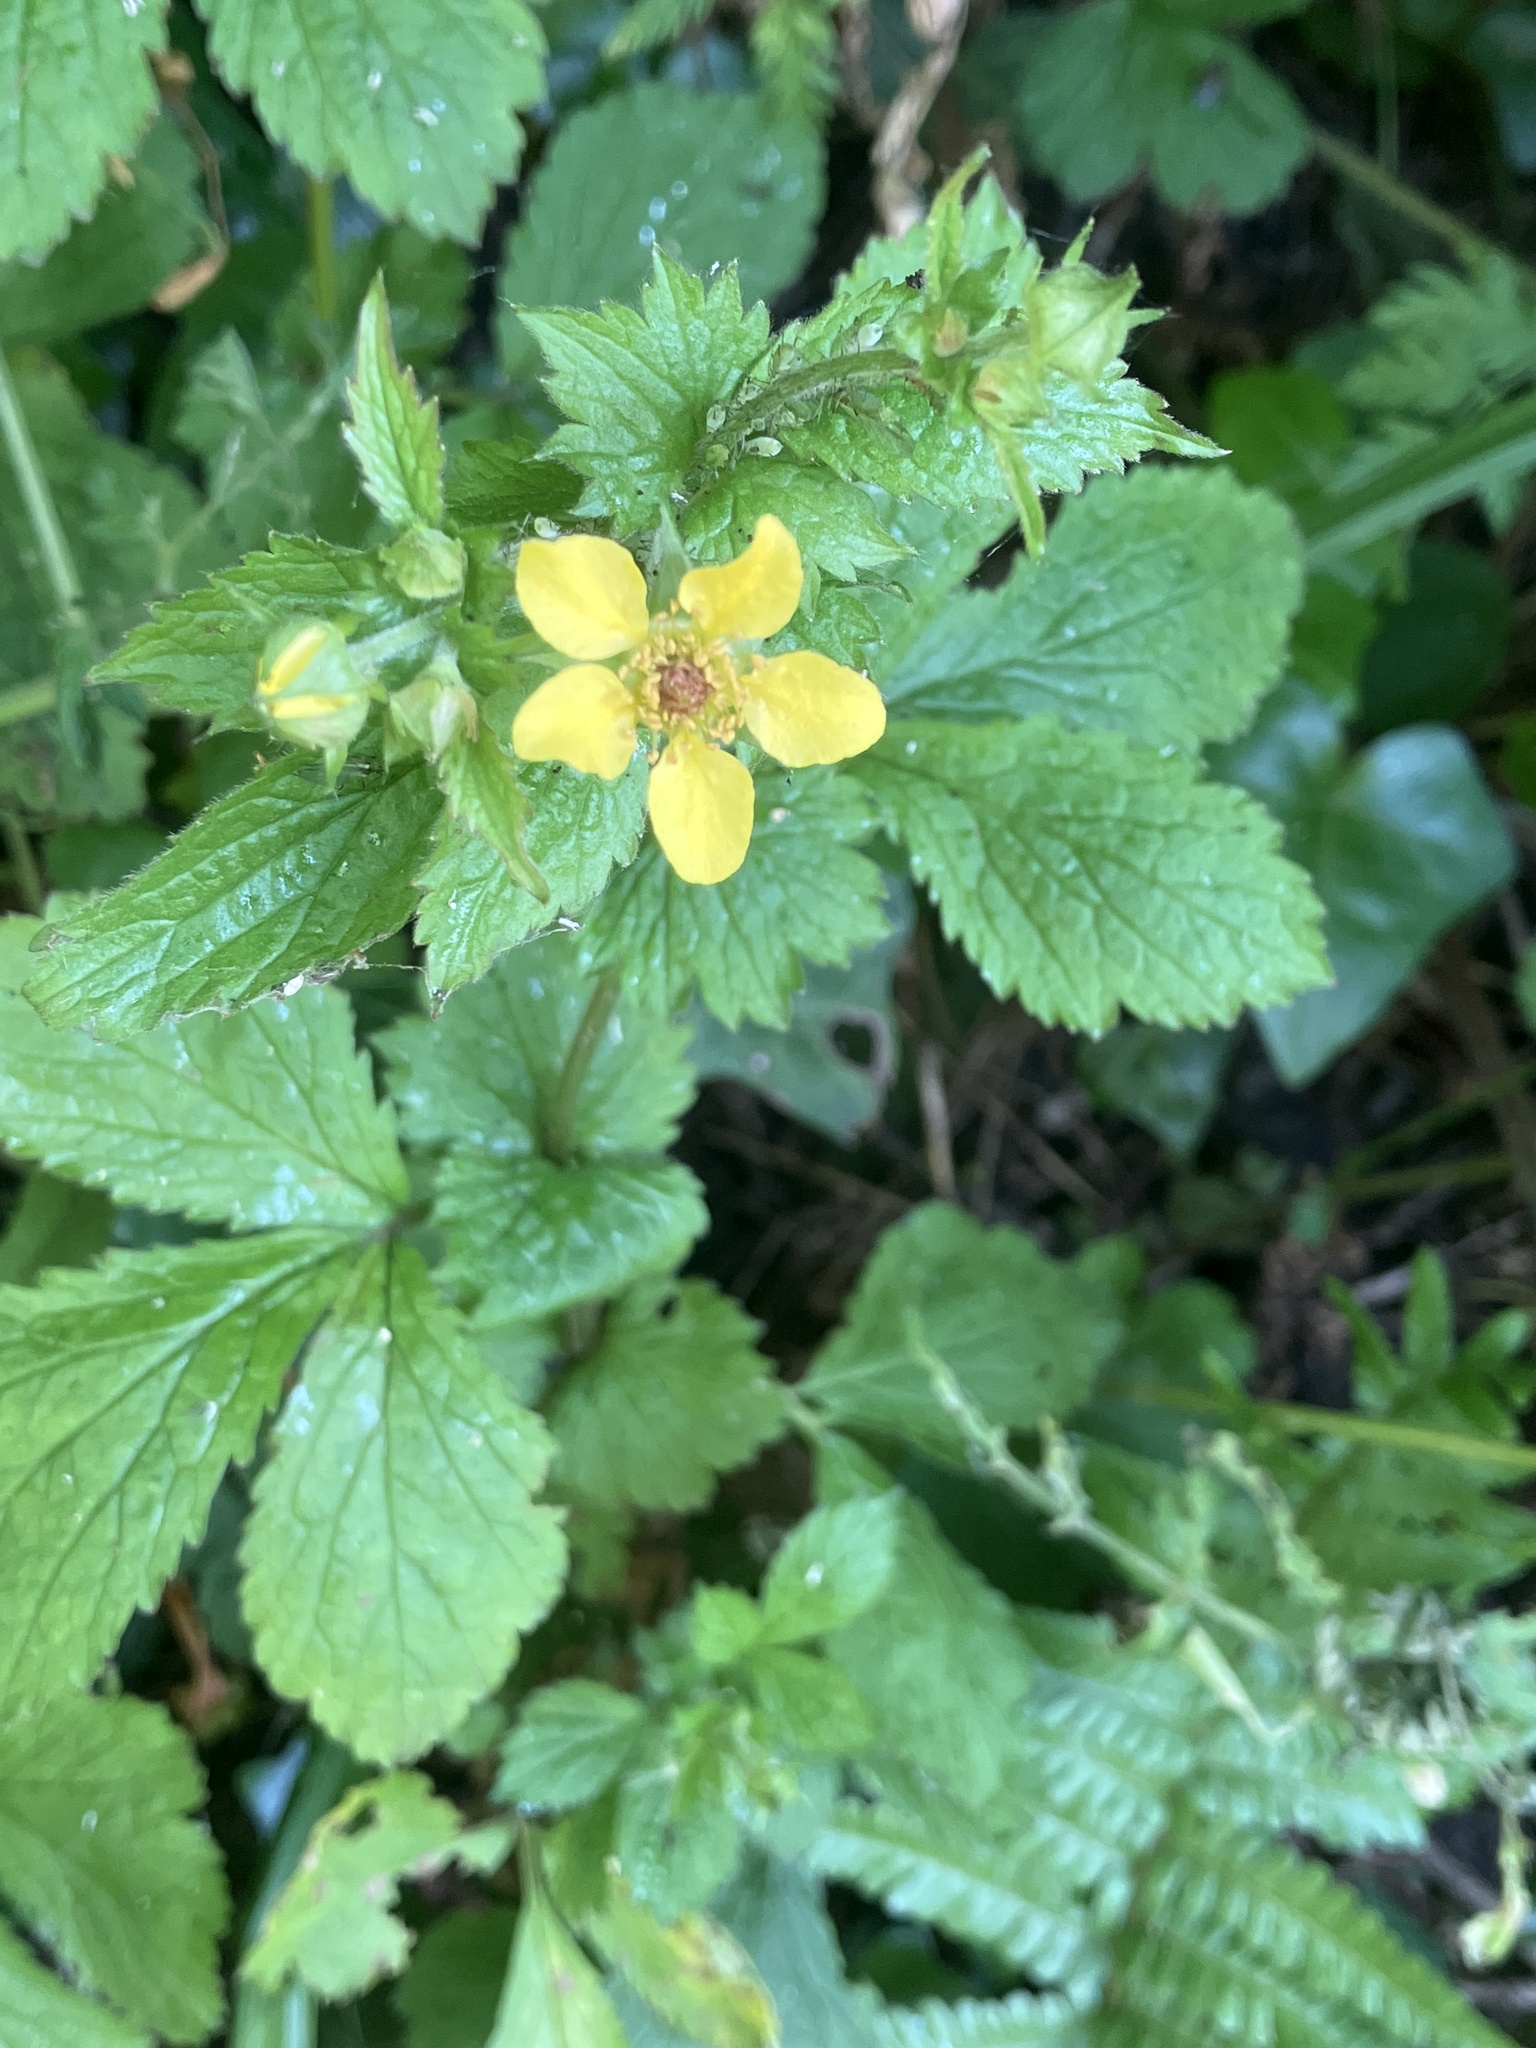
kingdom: Plantae
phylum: Tracheophyta
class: Magnoliopsida
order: Rosales
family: Rosaceae
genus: Geum
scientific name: Geum urbanum
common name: Wood avens
